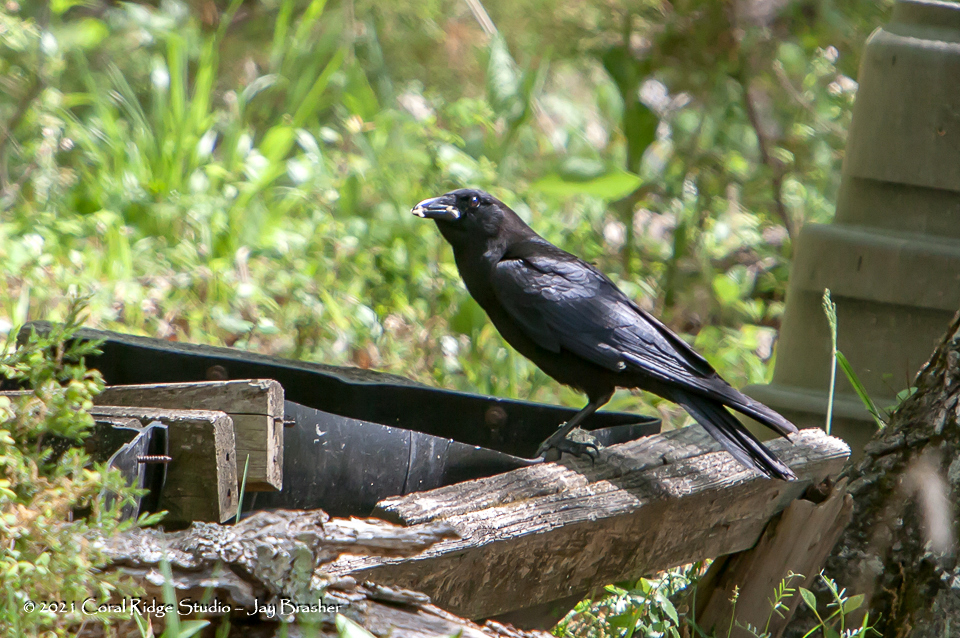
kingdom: Animalia
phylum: Chordata
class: Aves
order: Passeriformes
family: Corvidae
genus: Corvus
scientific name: Corvus brachyrhynchos
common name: American crow
